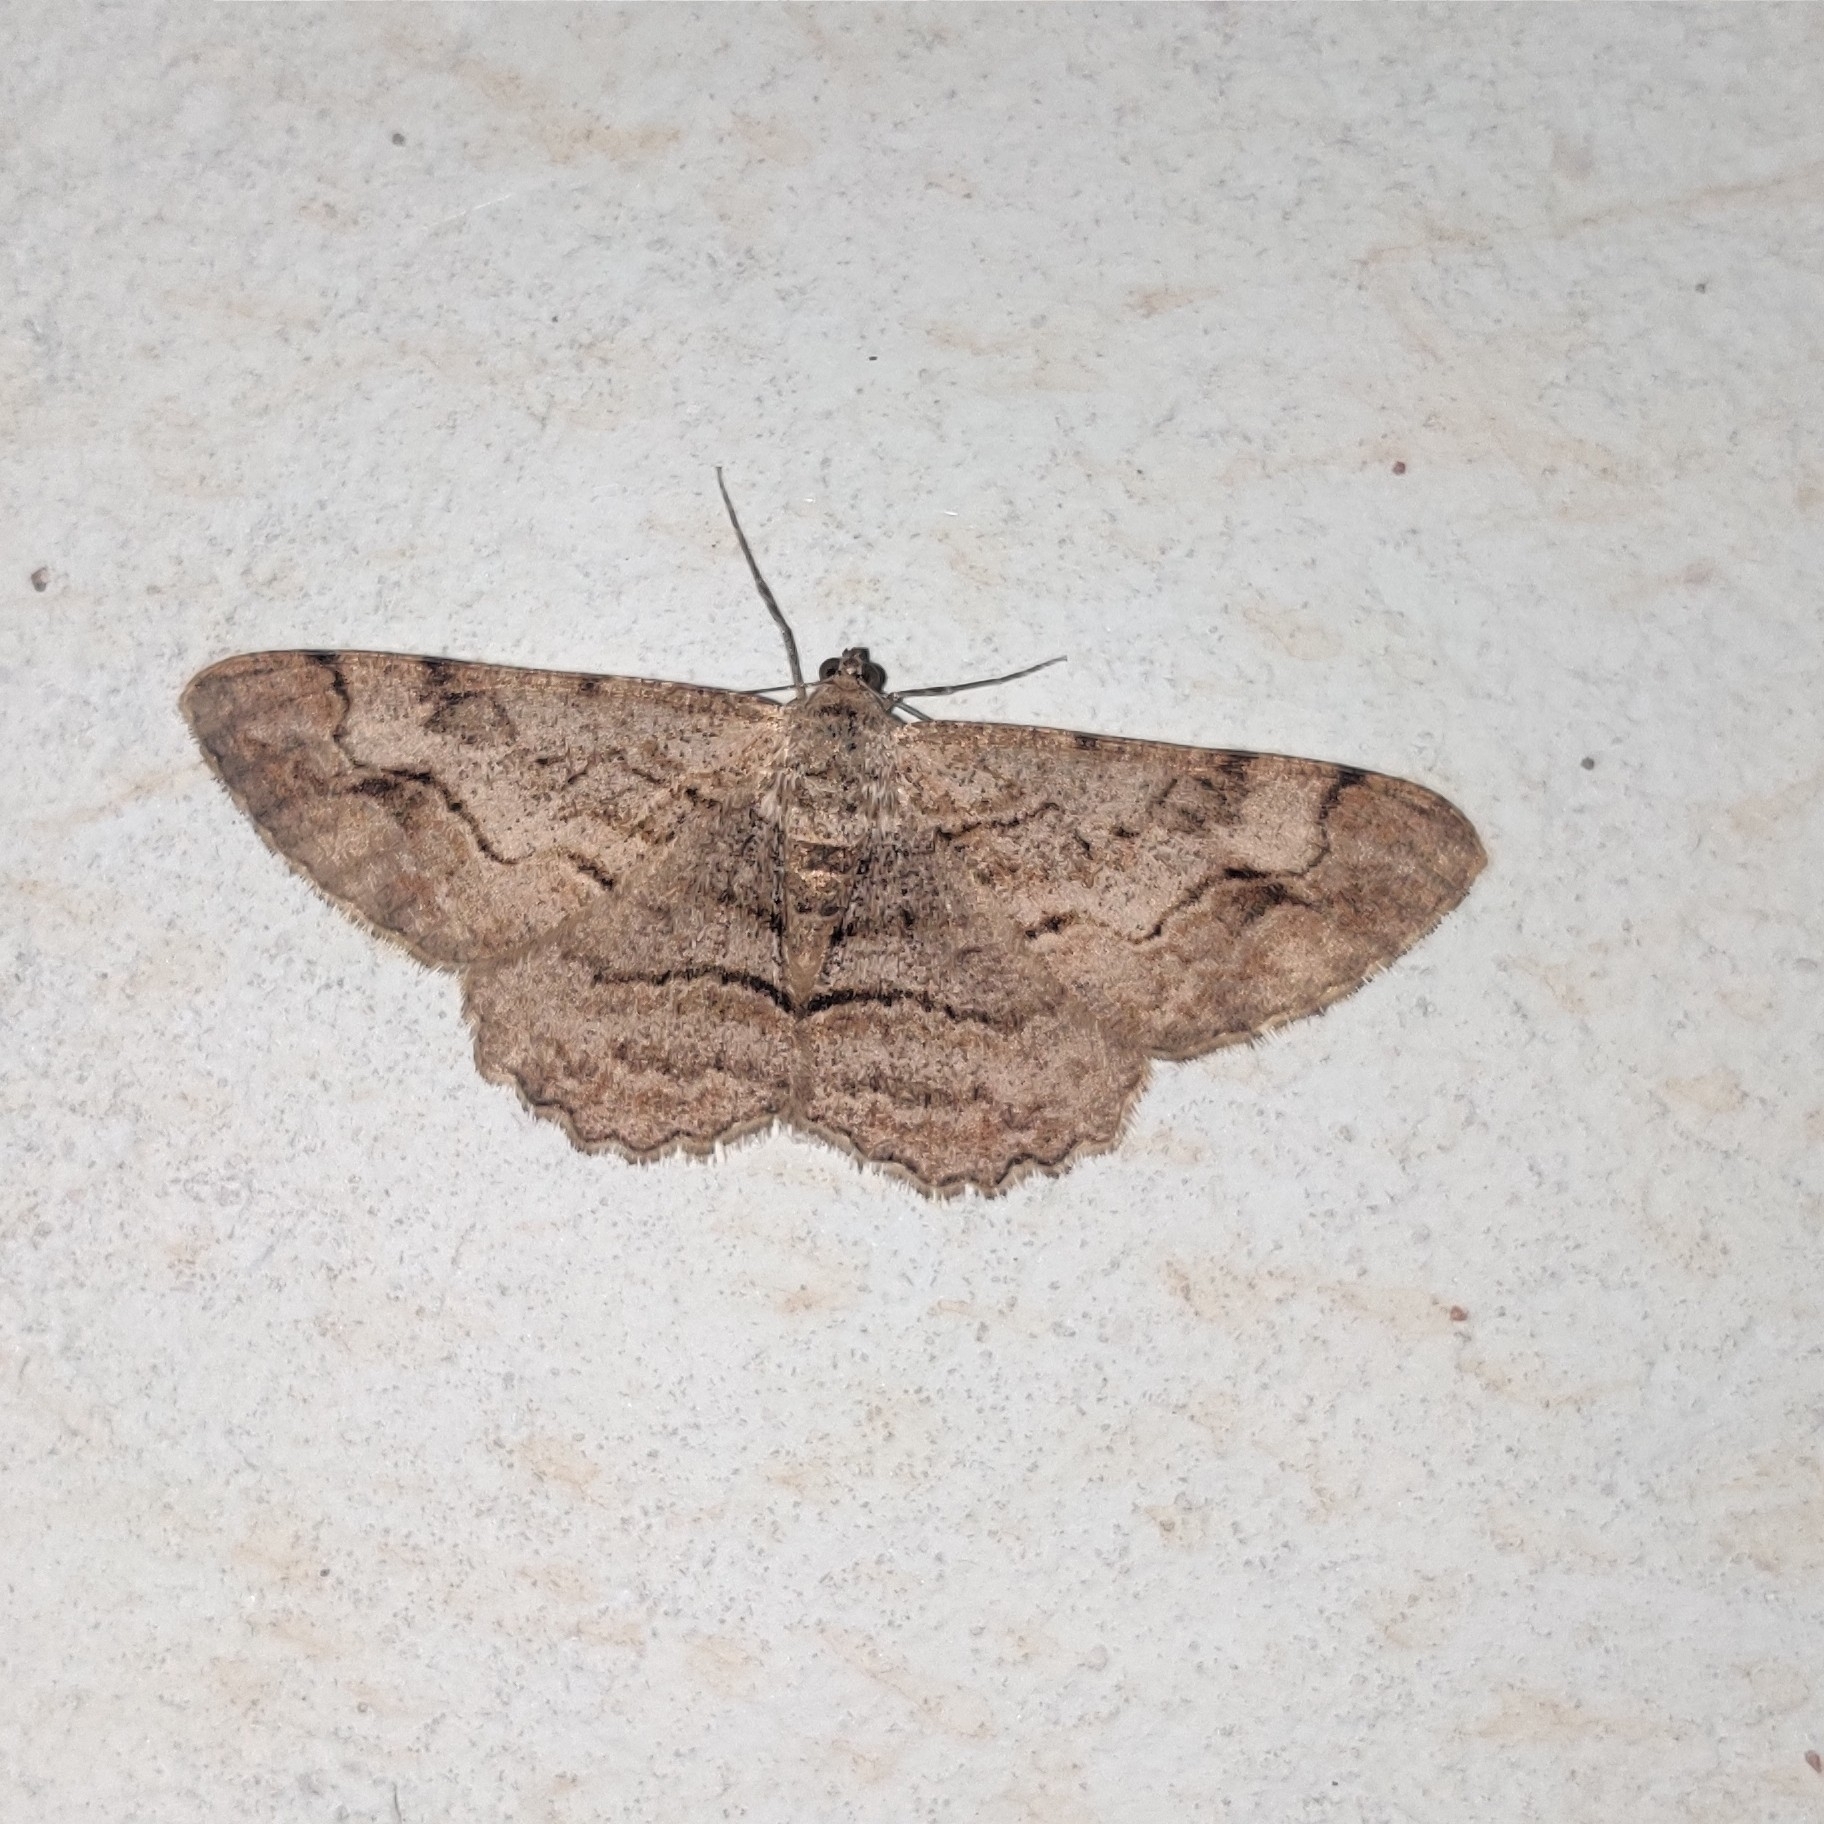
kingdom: Animalia
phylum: Arthropoda
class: Insecta
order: Lepidoptera
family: Geometridae
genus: Alcis
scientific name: Alcis paghmana
